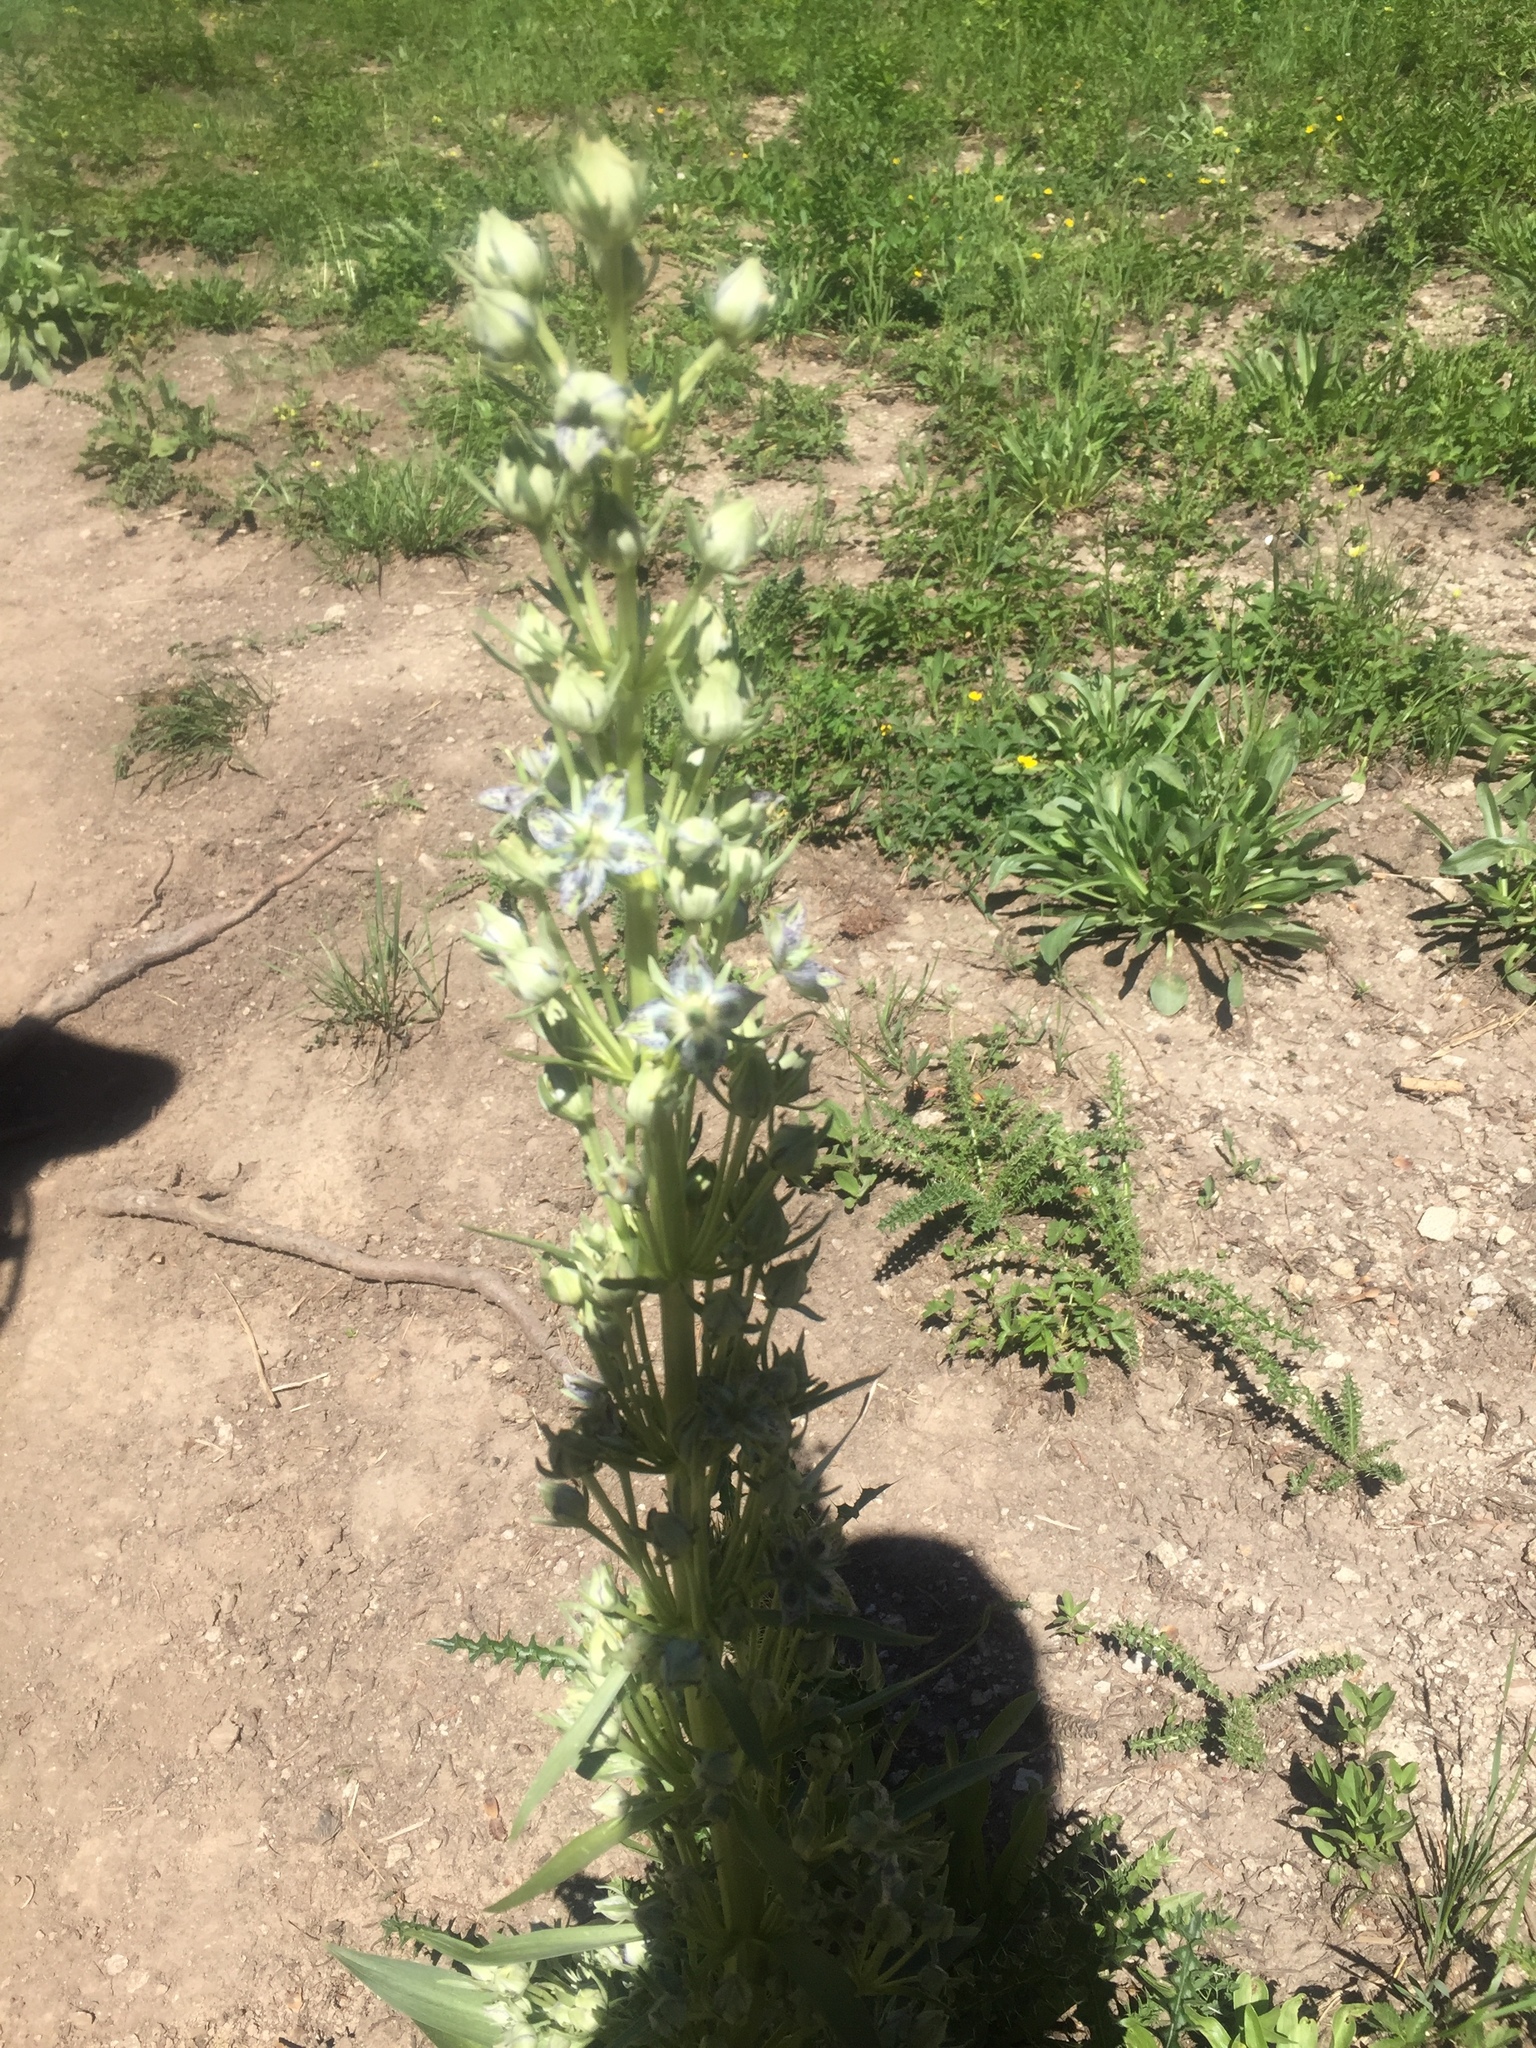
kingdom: Plantae
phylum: Tracheophyta
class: Magnoliopsida
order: Gentianales
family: Gentianaceae
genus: Frasera
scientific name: Frasera speciosa
